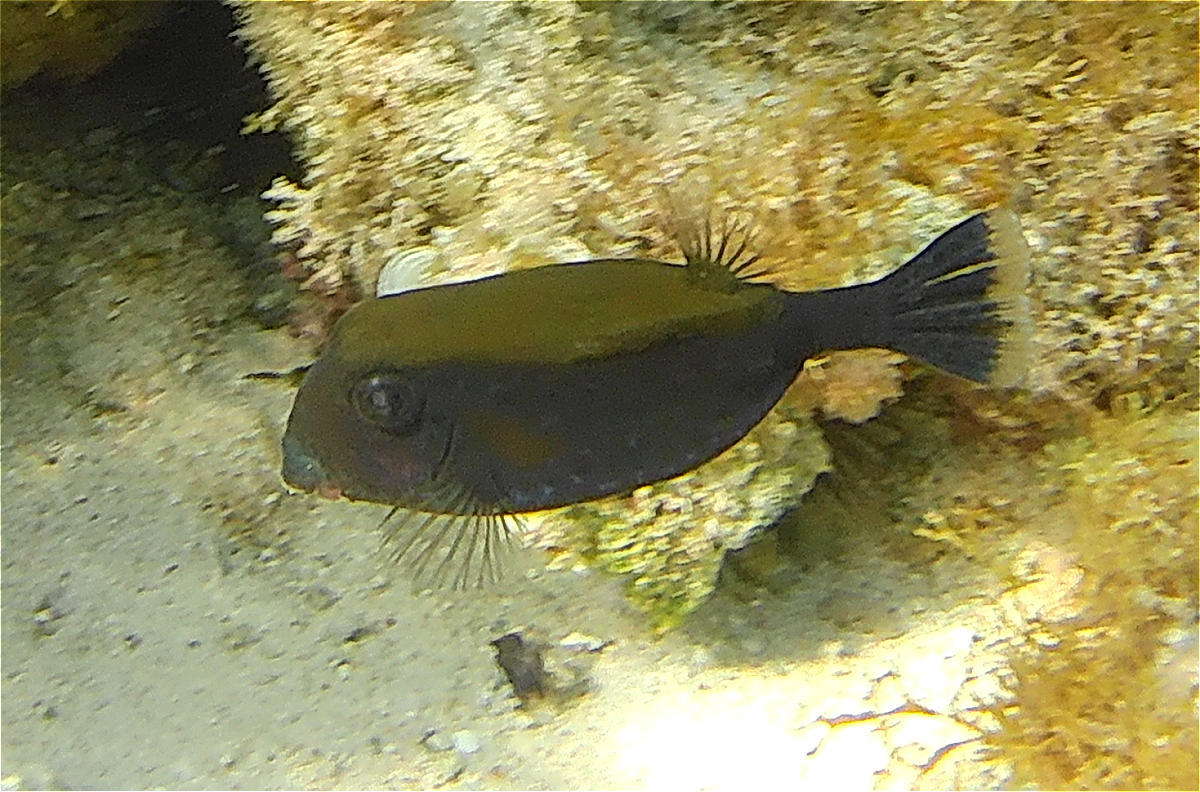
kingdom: Animalia
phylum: Chordata
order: Tetraodontiformes
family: Ostraciidae
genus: Ostracion
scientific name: Ostracion cyanurus
